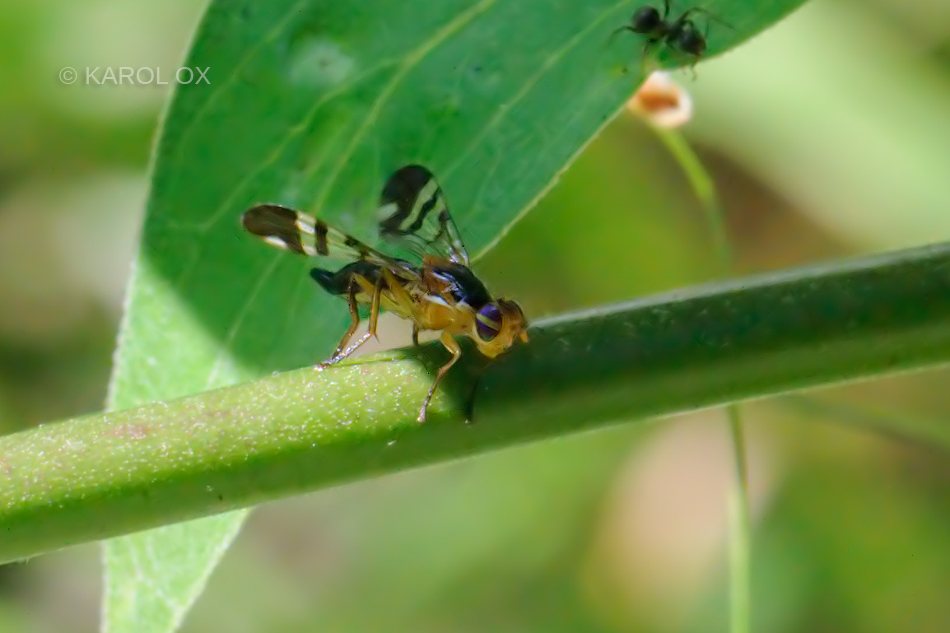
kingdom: Animalia
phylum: Arthropoda
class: Insecta
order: Diptera
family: Tephritidae
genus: Euphranta
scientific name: Euphranta connexa
